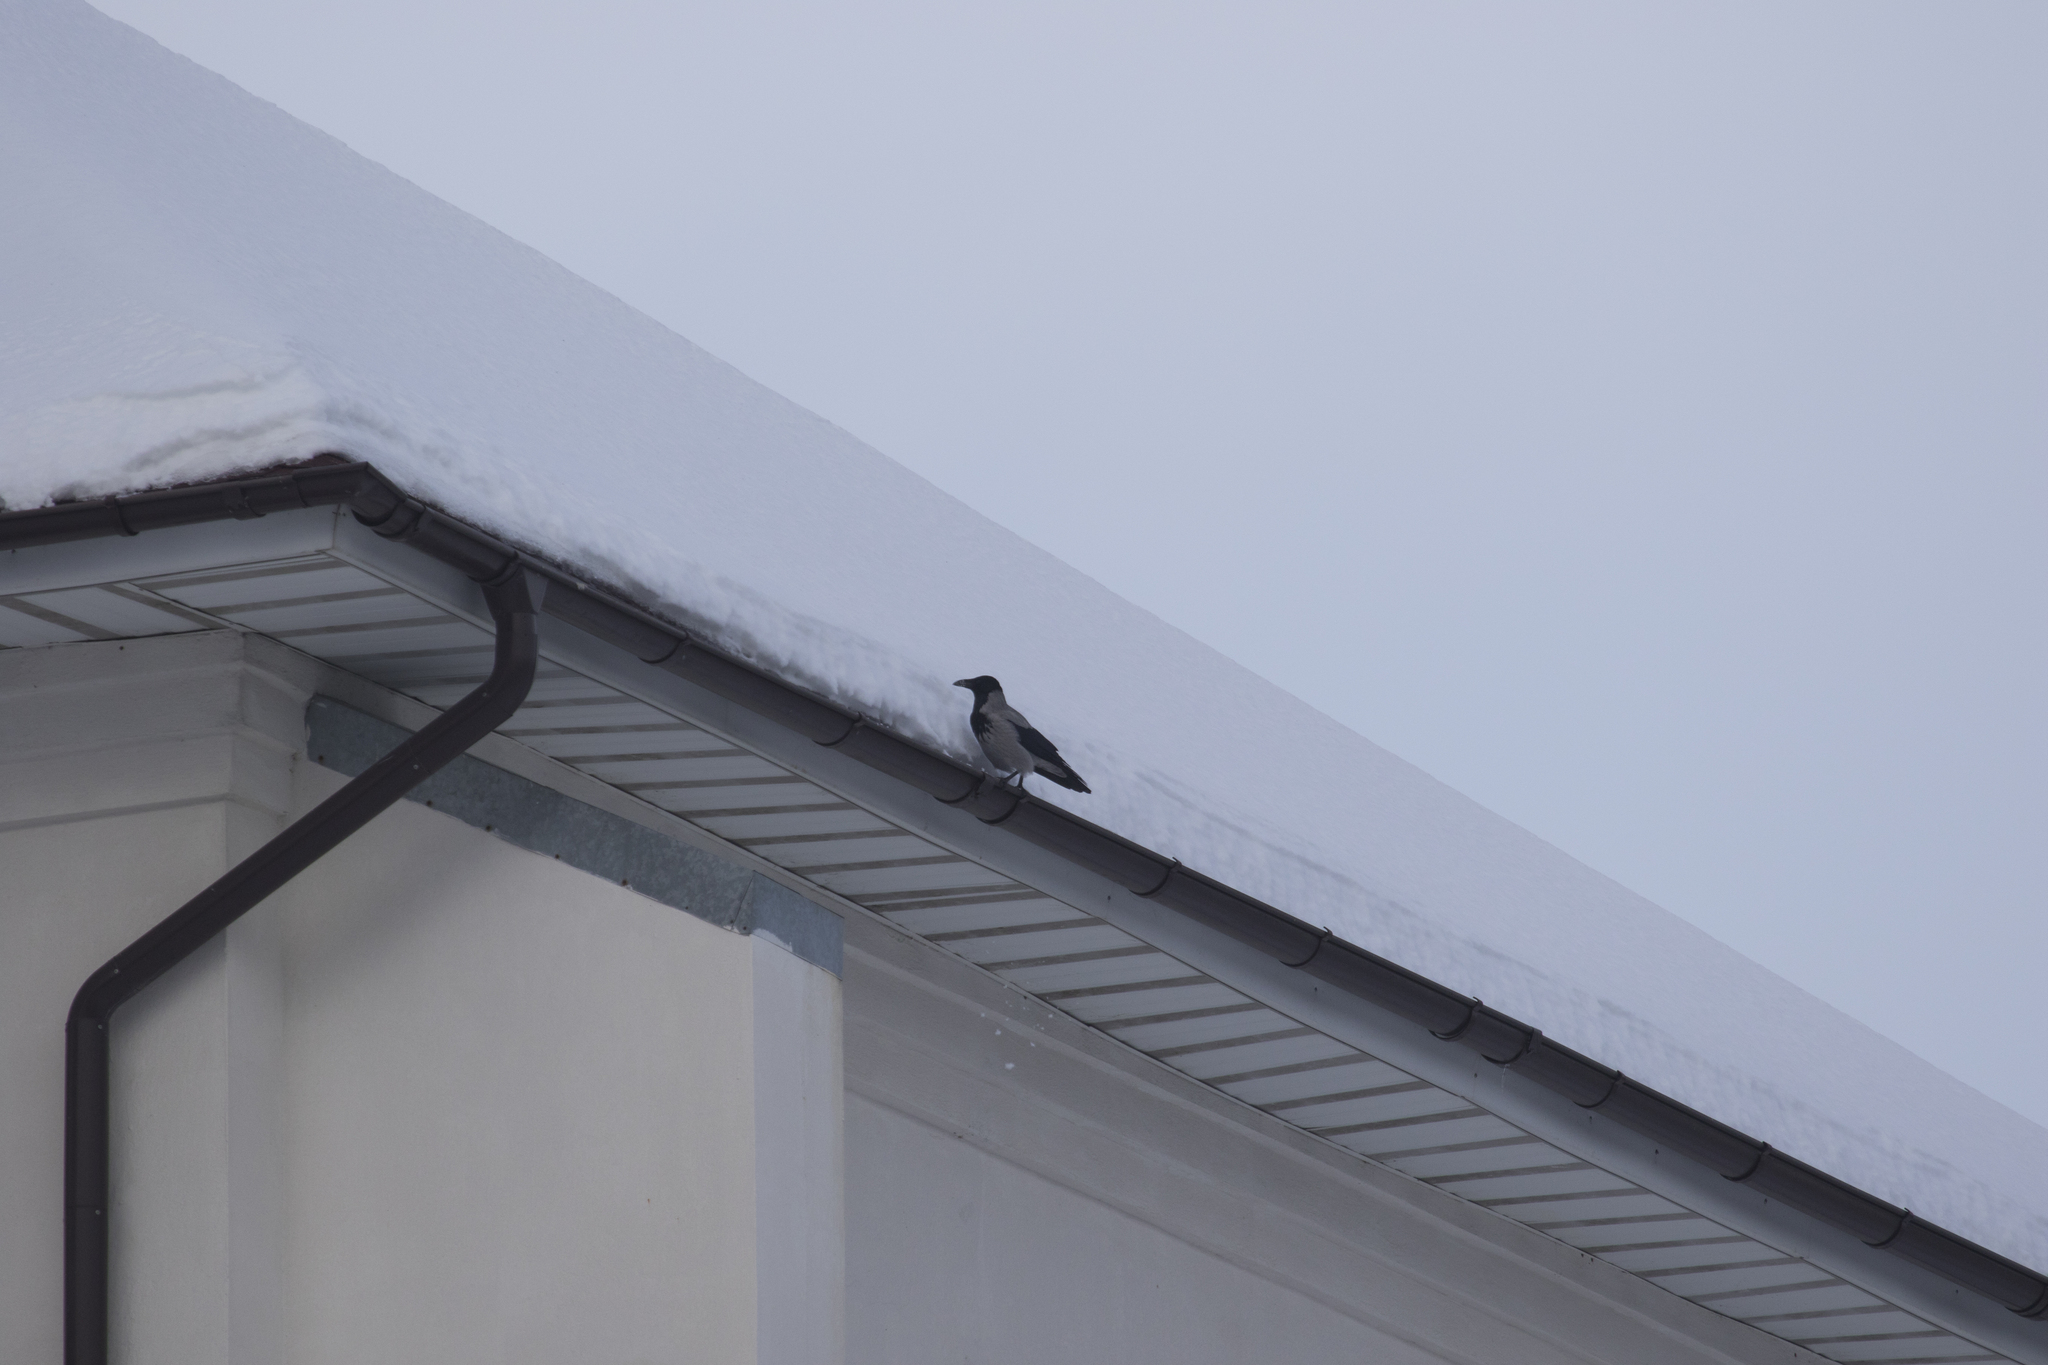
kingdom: Animalia
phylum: Chordata
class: Aves
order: Passeriformes
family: Corvidae
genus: Corvus
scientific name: Corvus cornix
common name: Hooded crow
